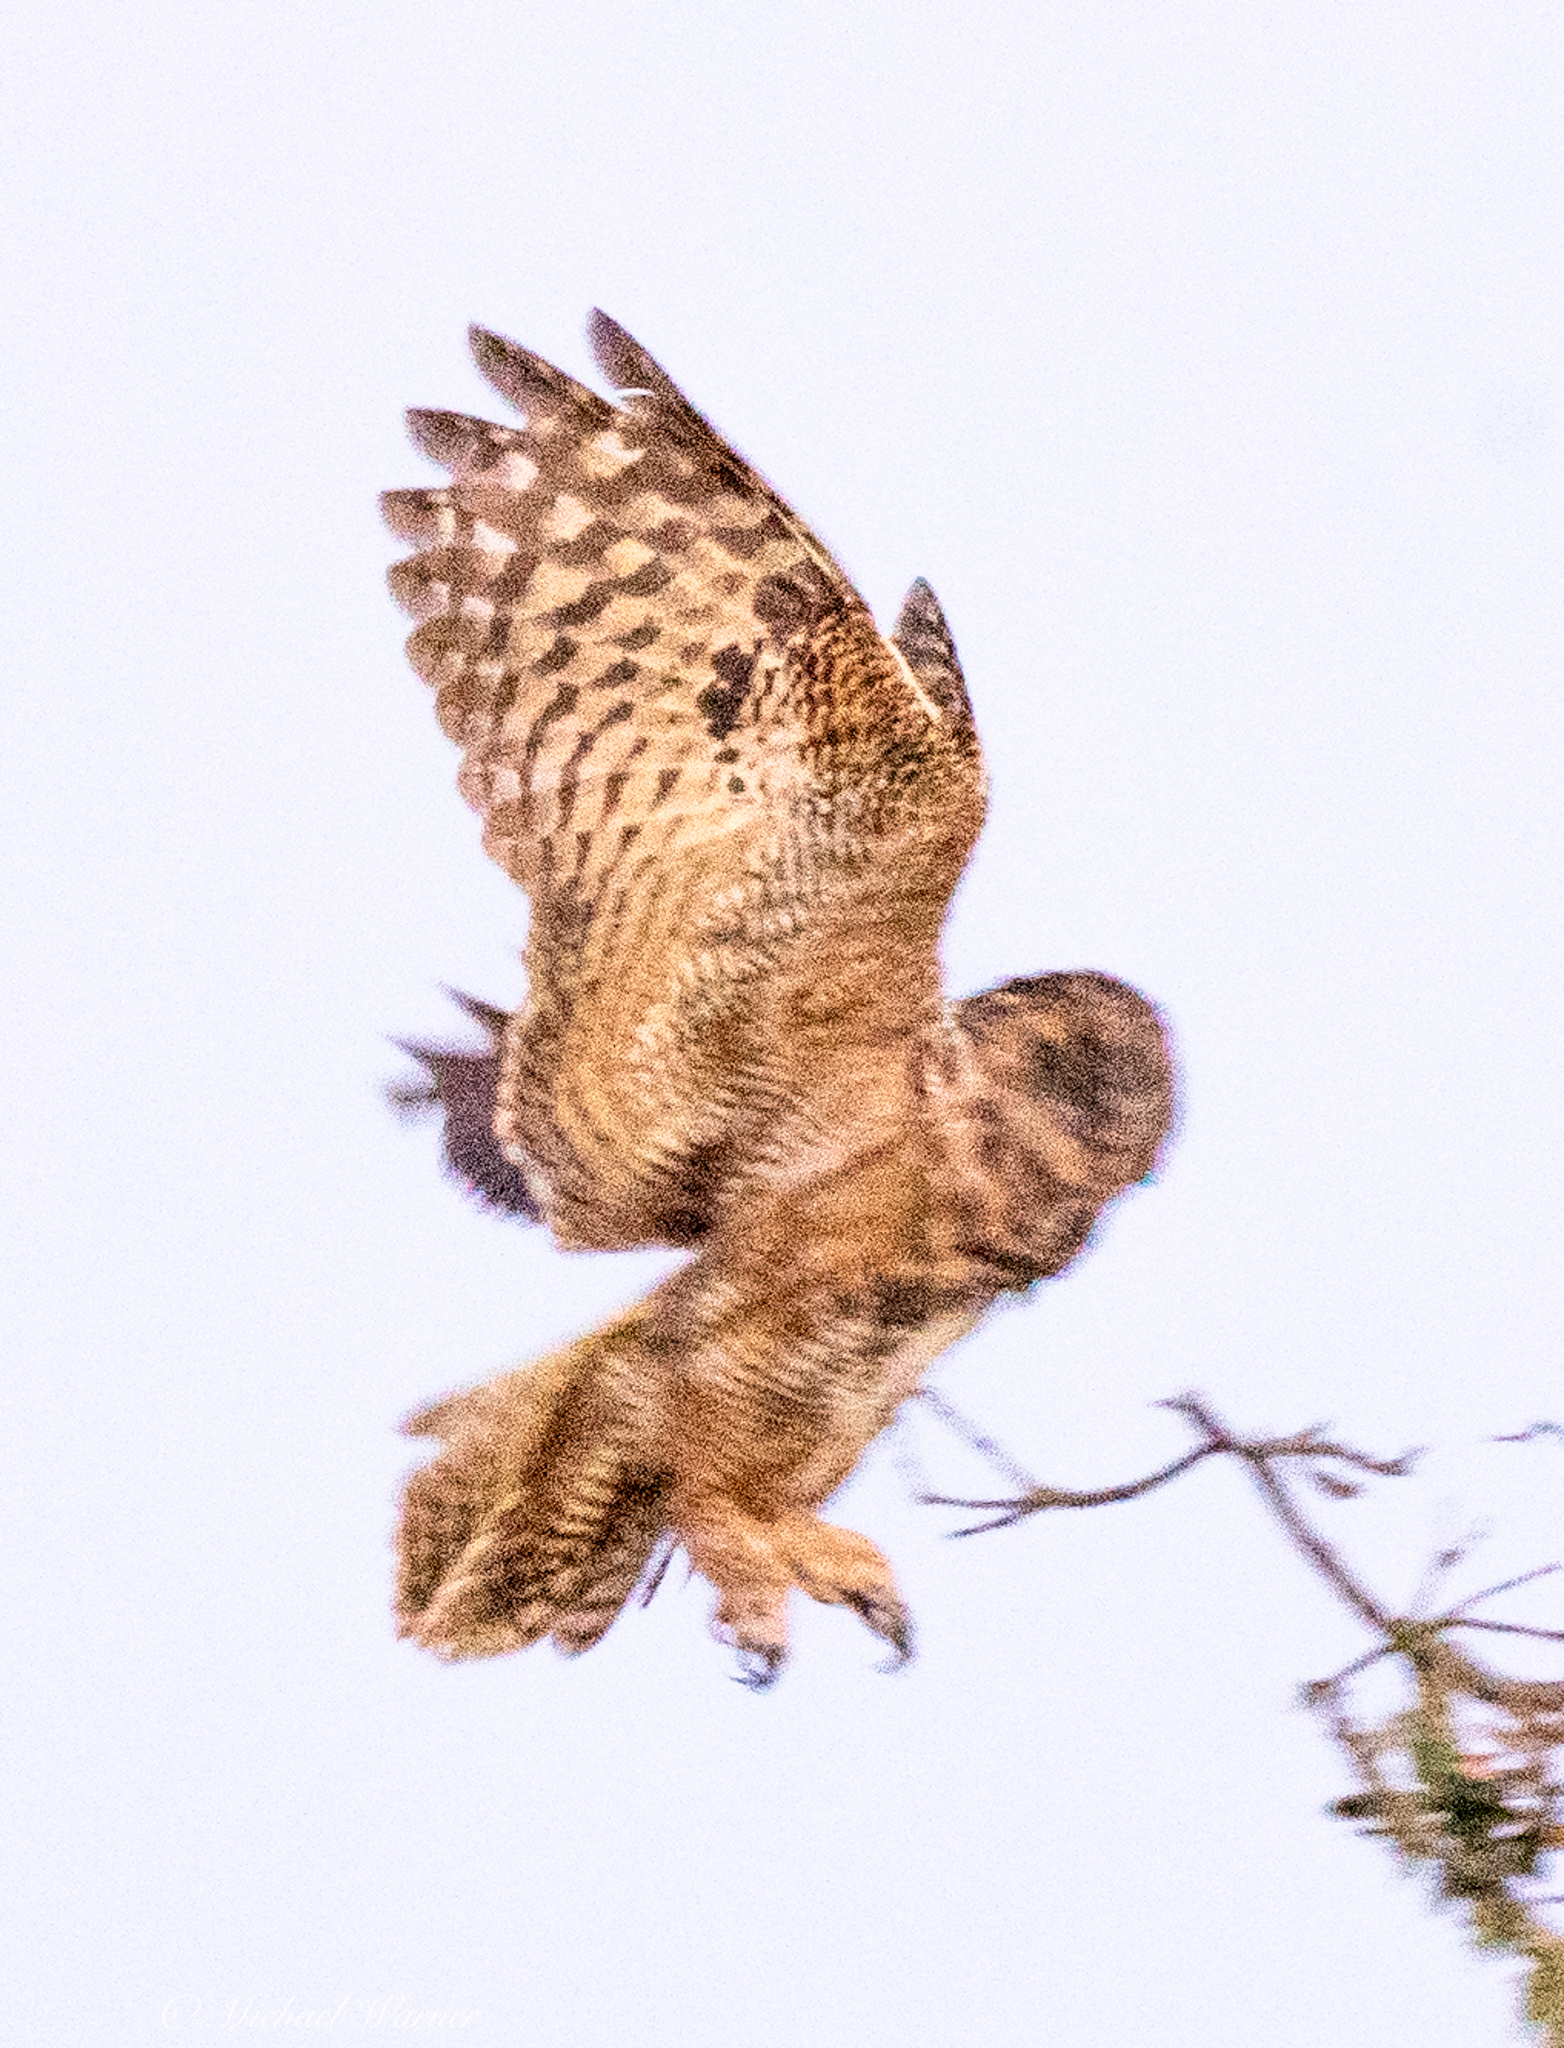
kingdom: Animalia
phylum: Chordata
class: Aves
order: Strigiformes
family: Strigidae
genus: Bubo
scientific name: Bubo virginianus
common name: Great horned owl
